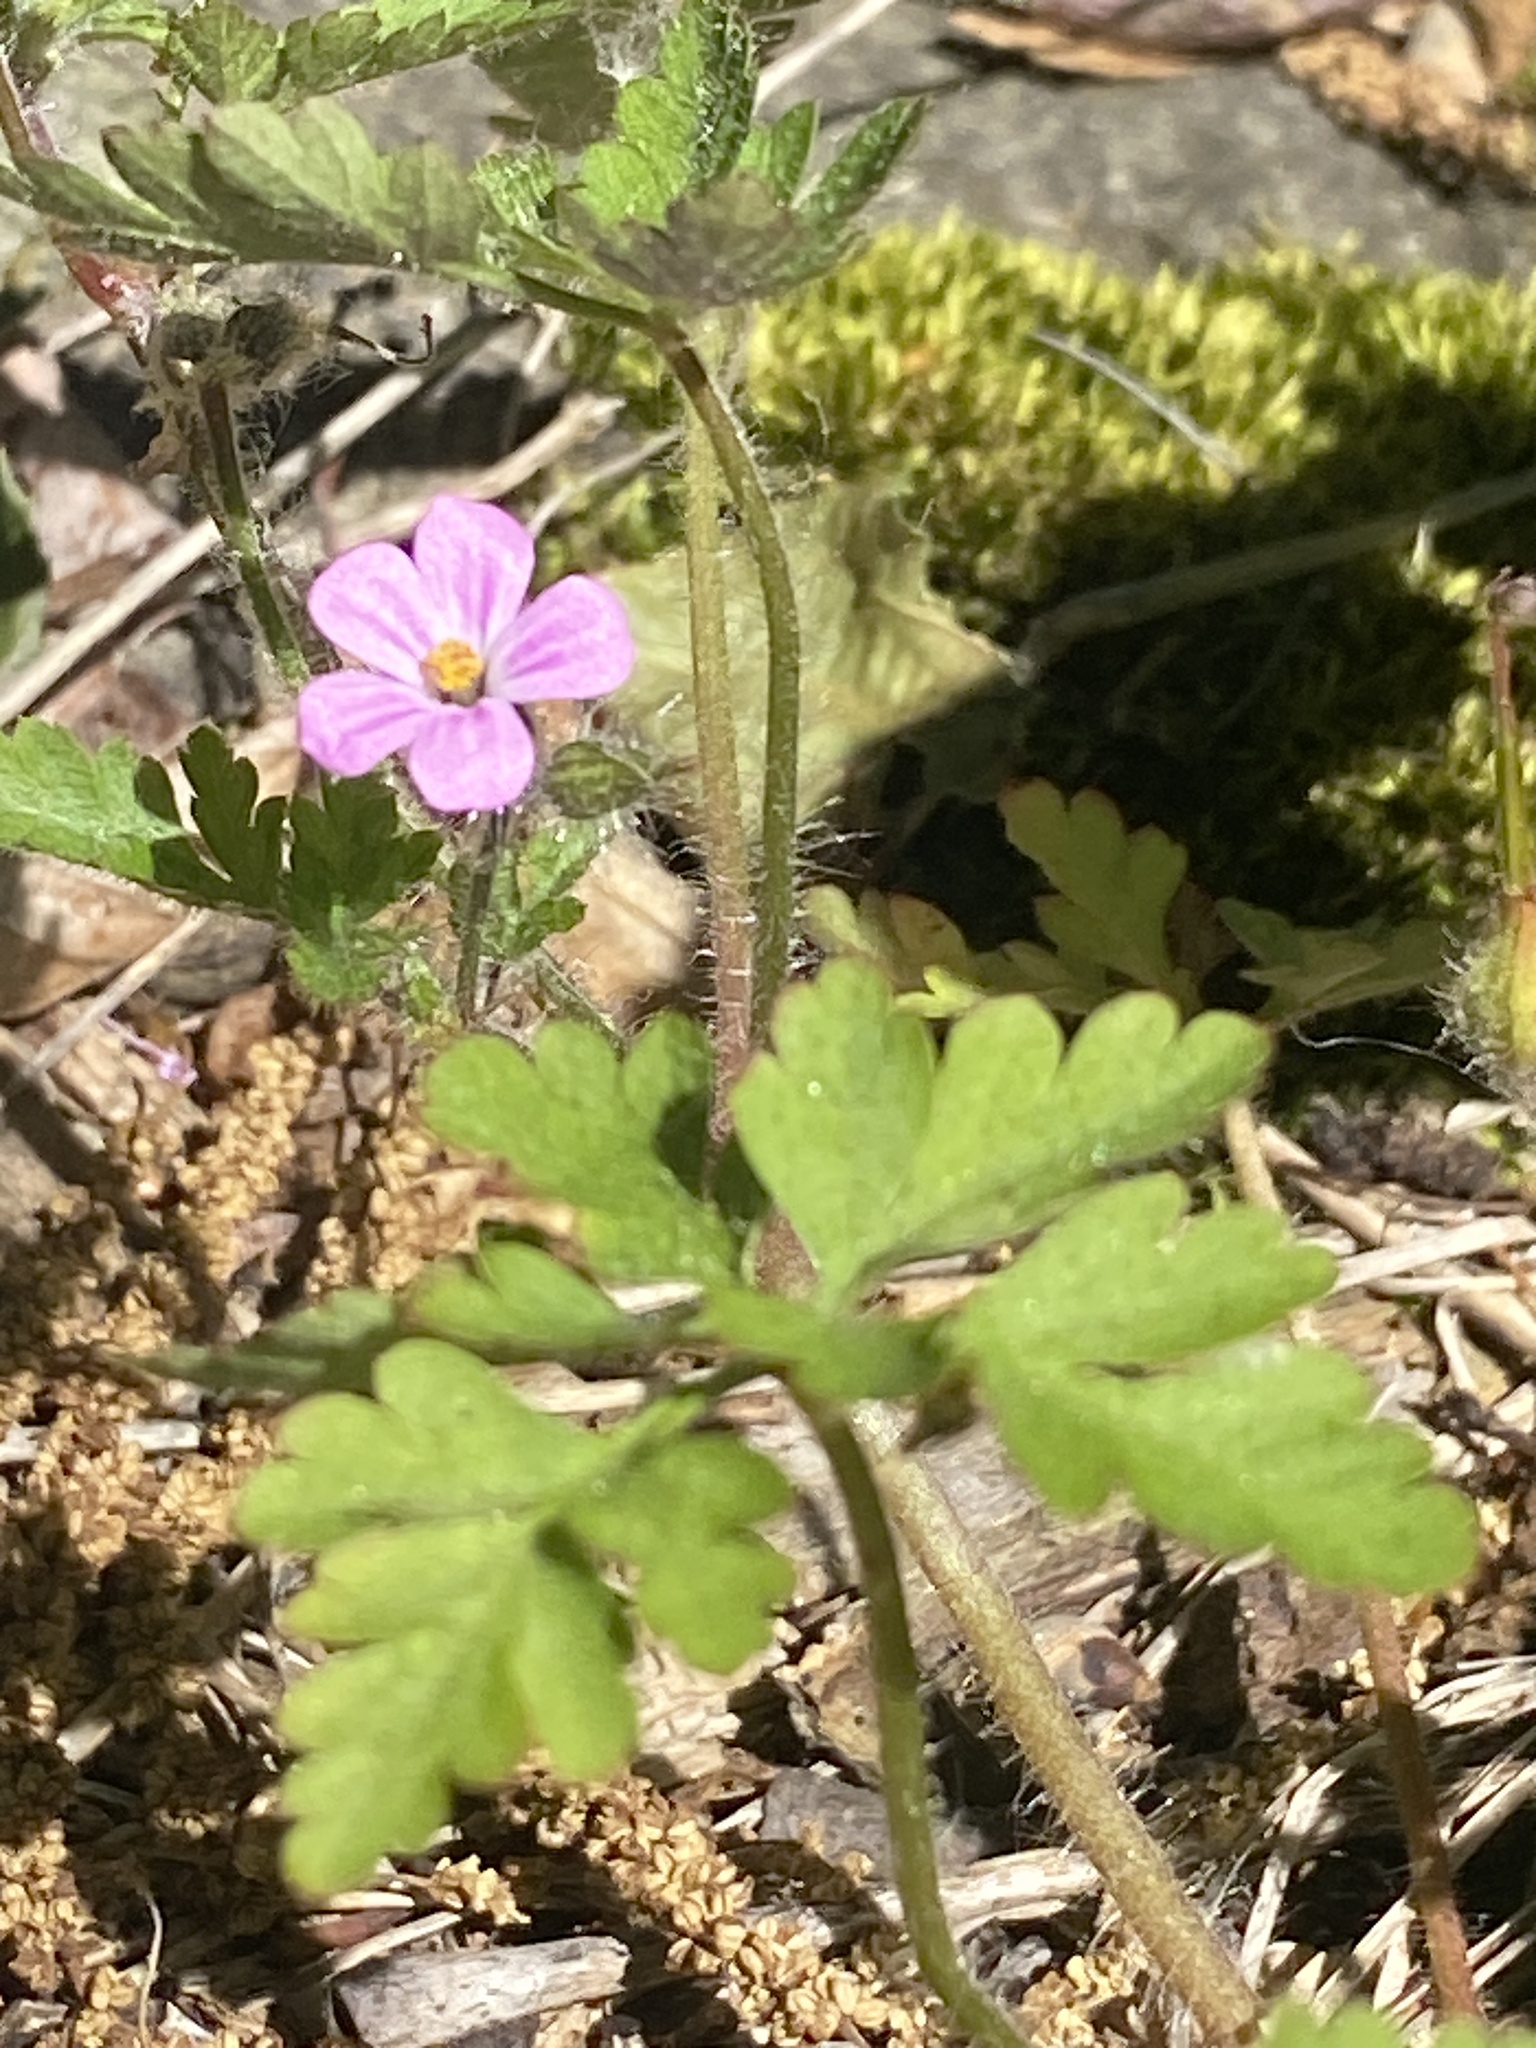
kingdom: Plantae
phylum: Tracheophyta
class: Magnoliopsida
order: Geraniales
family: Geraniaceae
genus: Geranium
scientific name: Geranium robertianum
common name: Herb-robert
